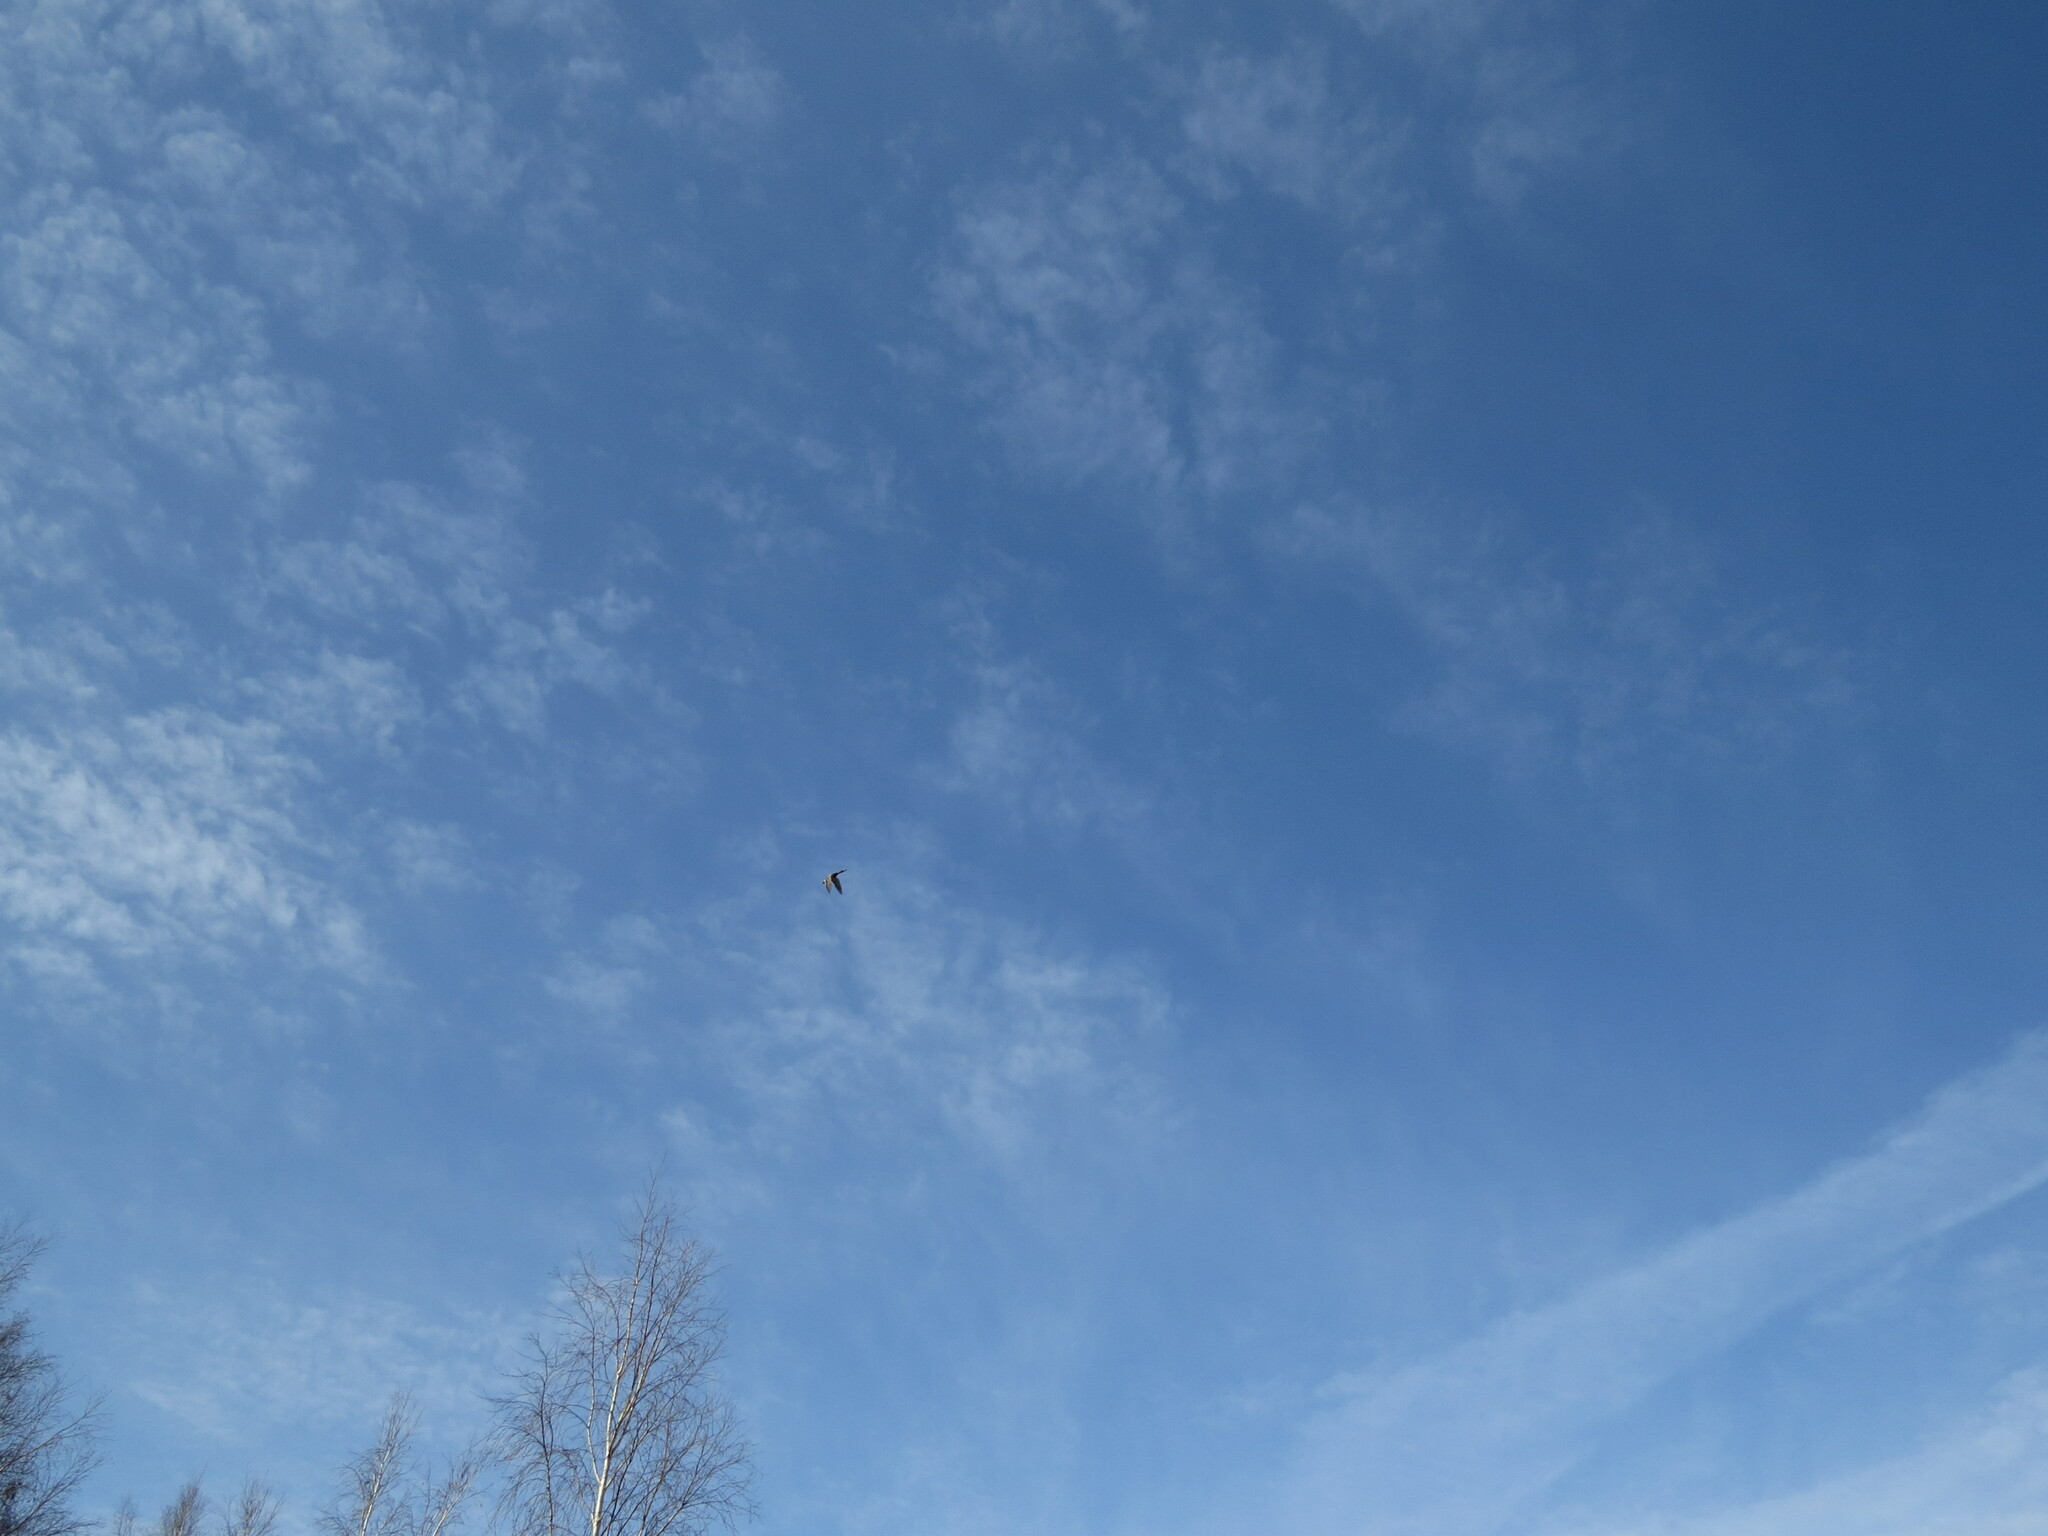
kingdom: Animalia
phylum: Chordata
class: Aves
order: Anseriformes
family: Anatidae
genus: Anas
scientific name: Anas platyrhynchos
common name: Mallard
